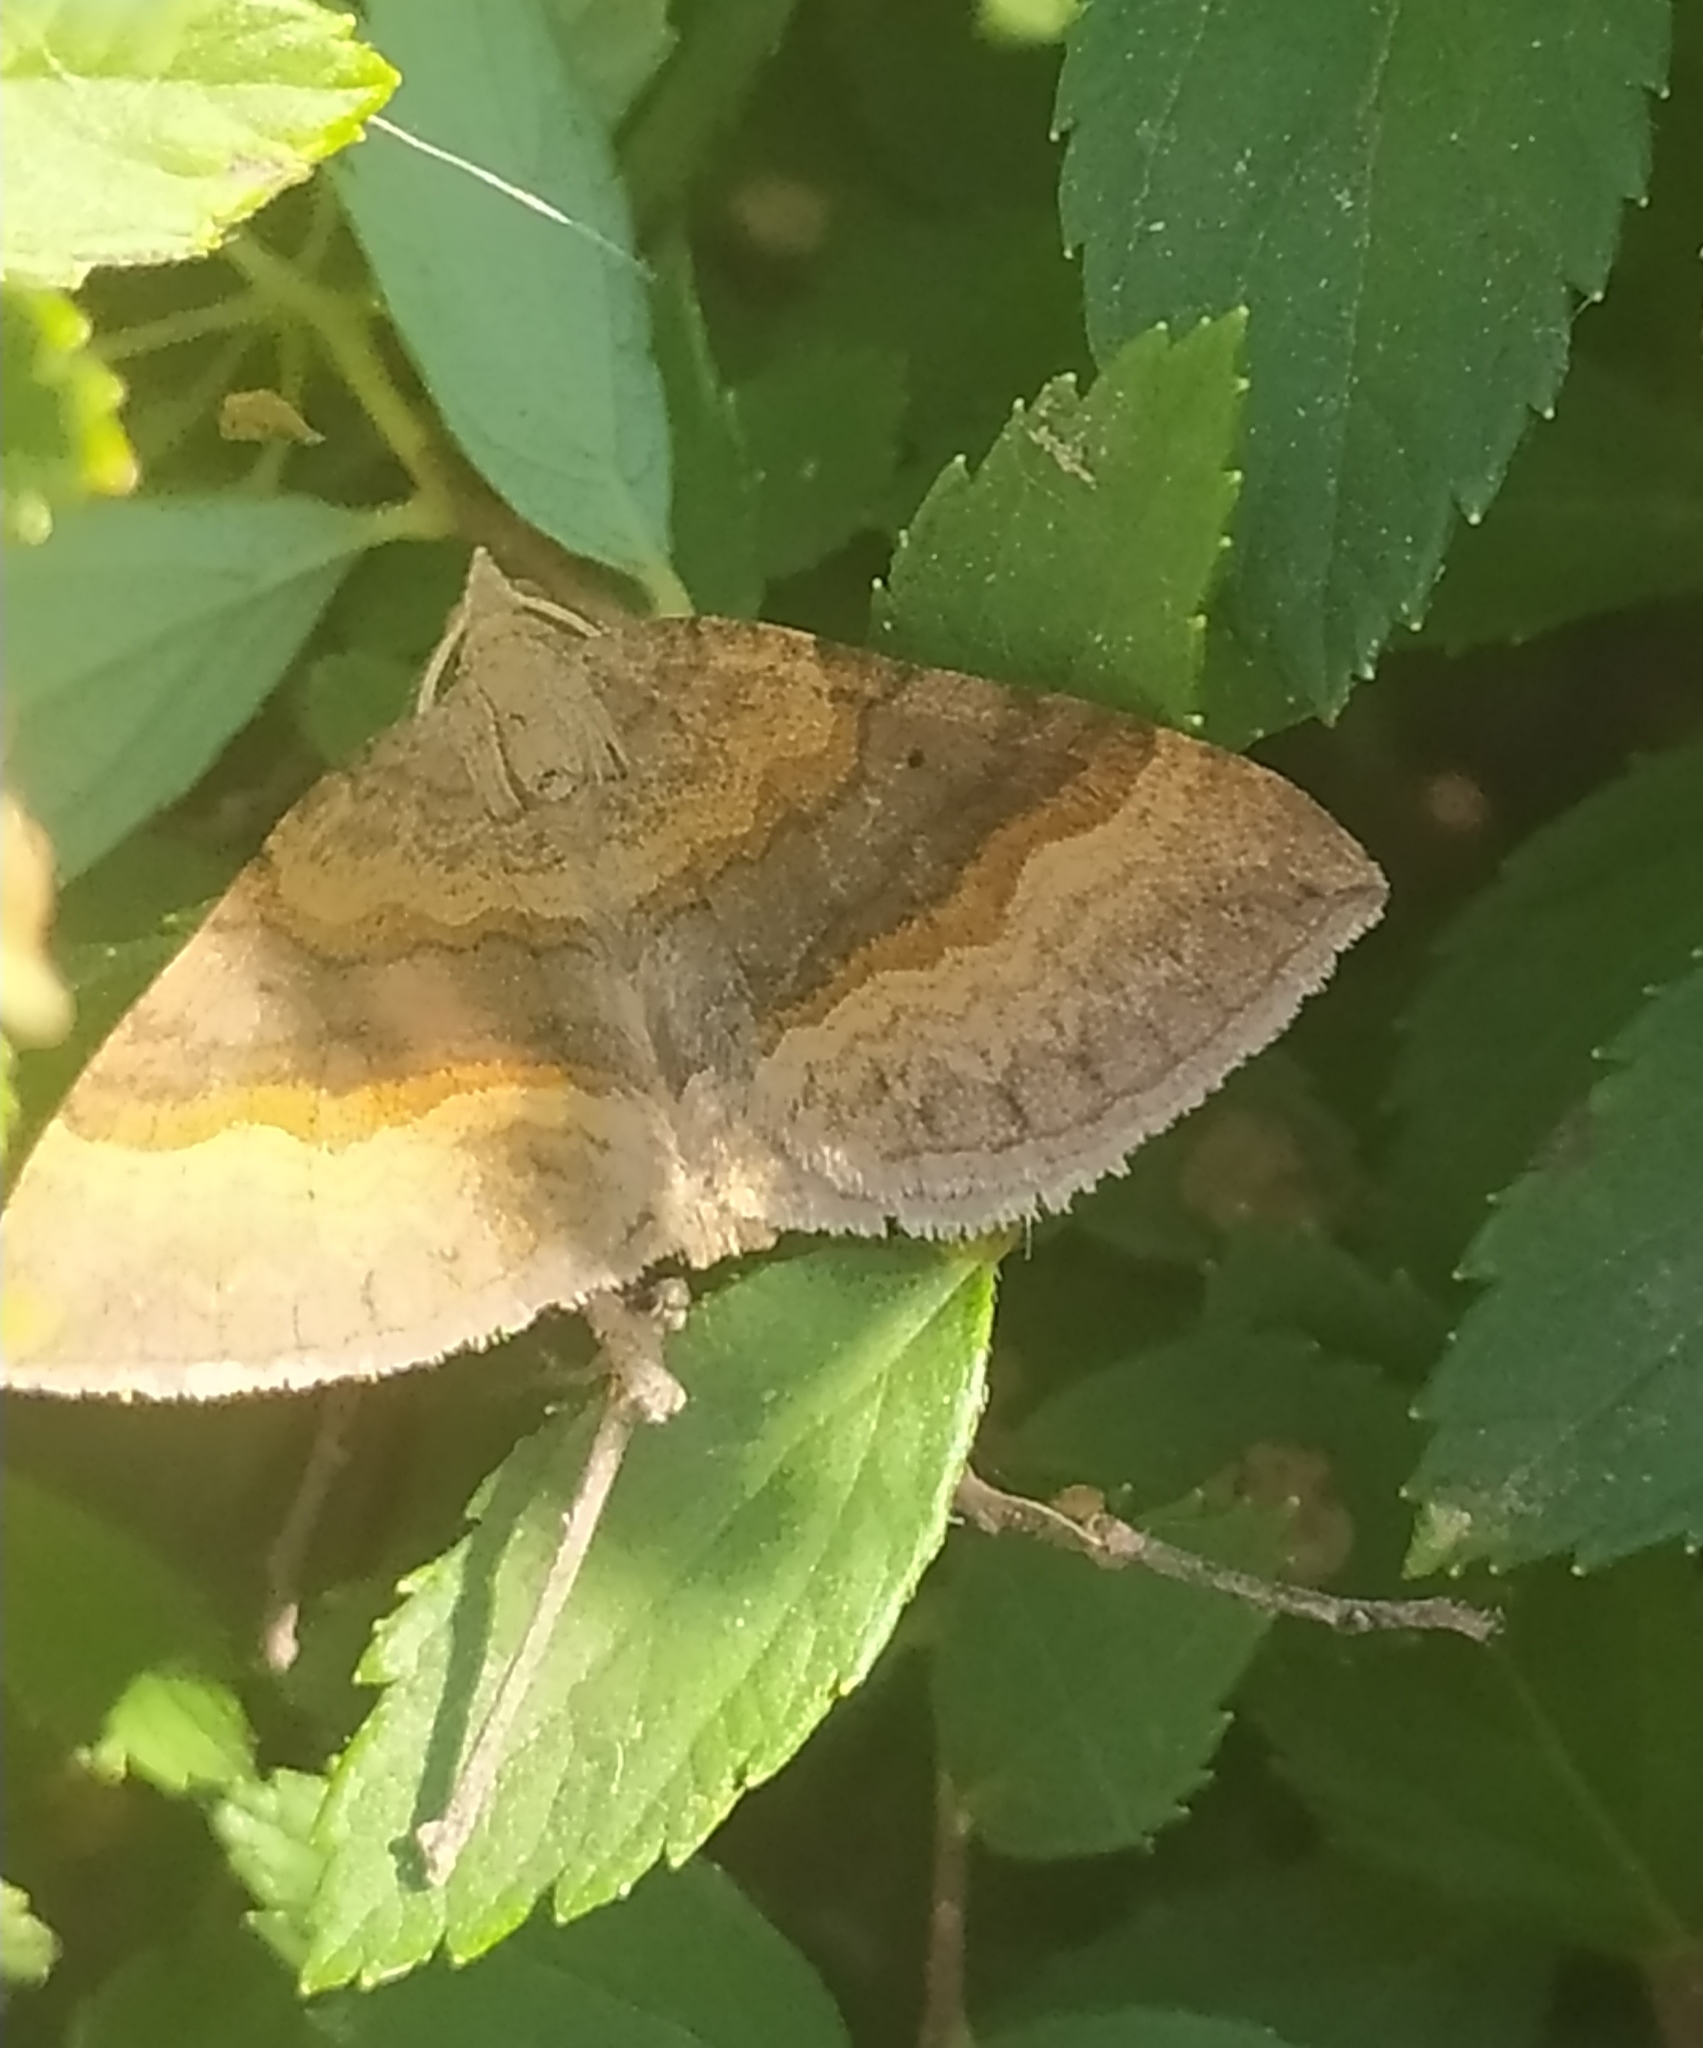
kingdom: Animalia
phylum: Arthropoda
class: Insecta
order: Lepidoptera
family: Geometridae
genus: Scotopteryx
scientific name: Scotopteryx chenopodiata
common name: Shaded broad-bar
